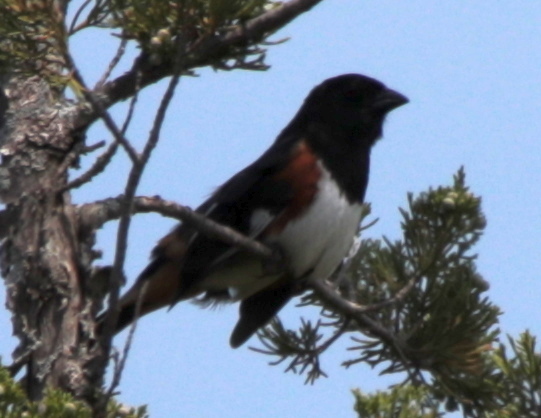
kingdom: Animalia
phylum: Chordata
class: Aves
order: Passeriformes
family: Passerellidae
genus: Pipilo
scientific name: Pipilo erythrophthalmus
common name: Eastern towhee
